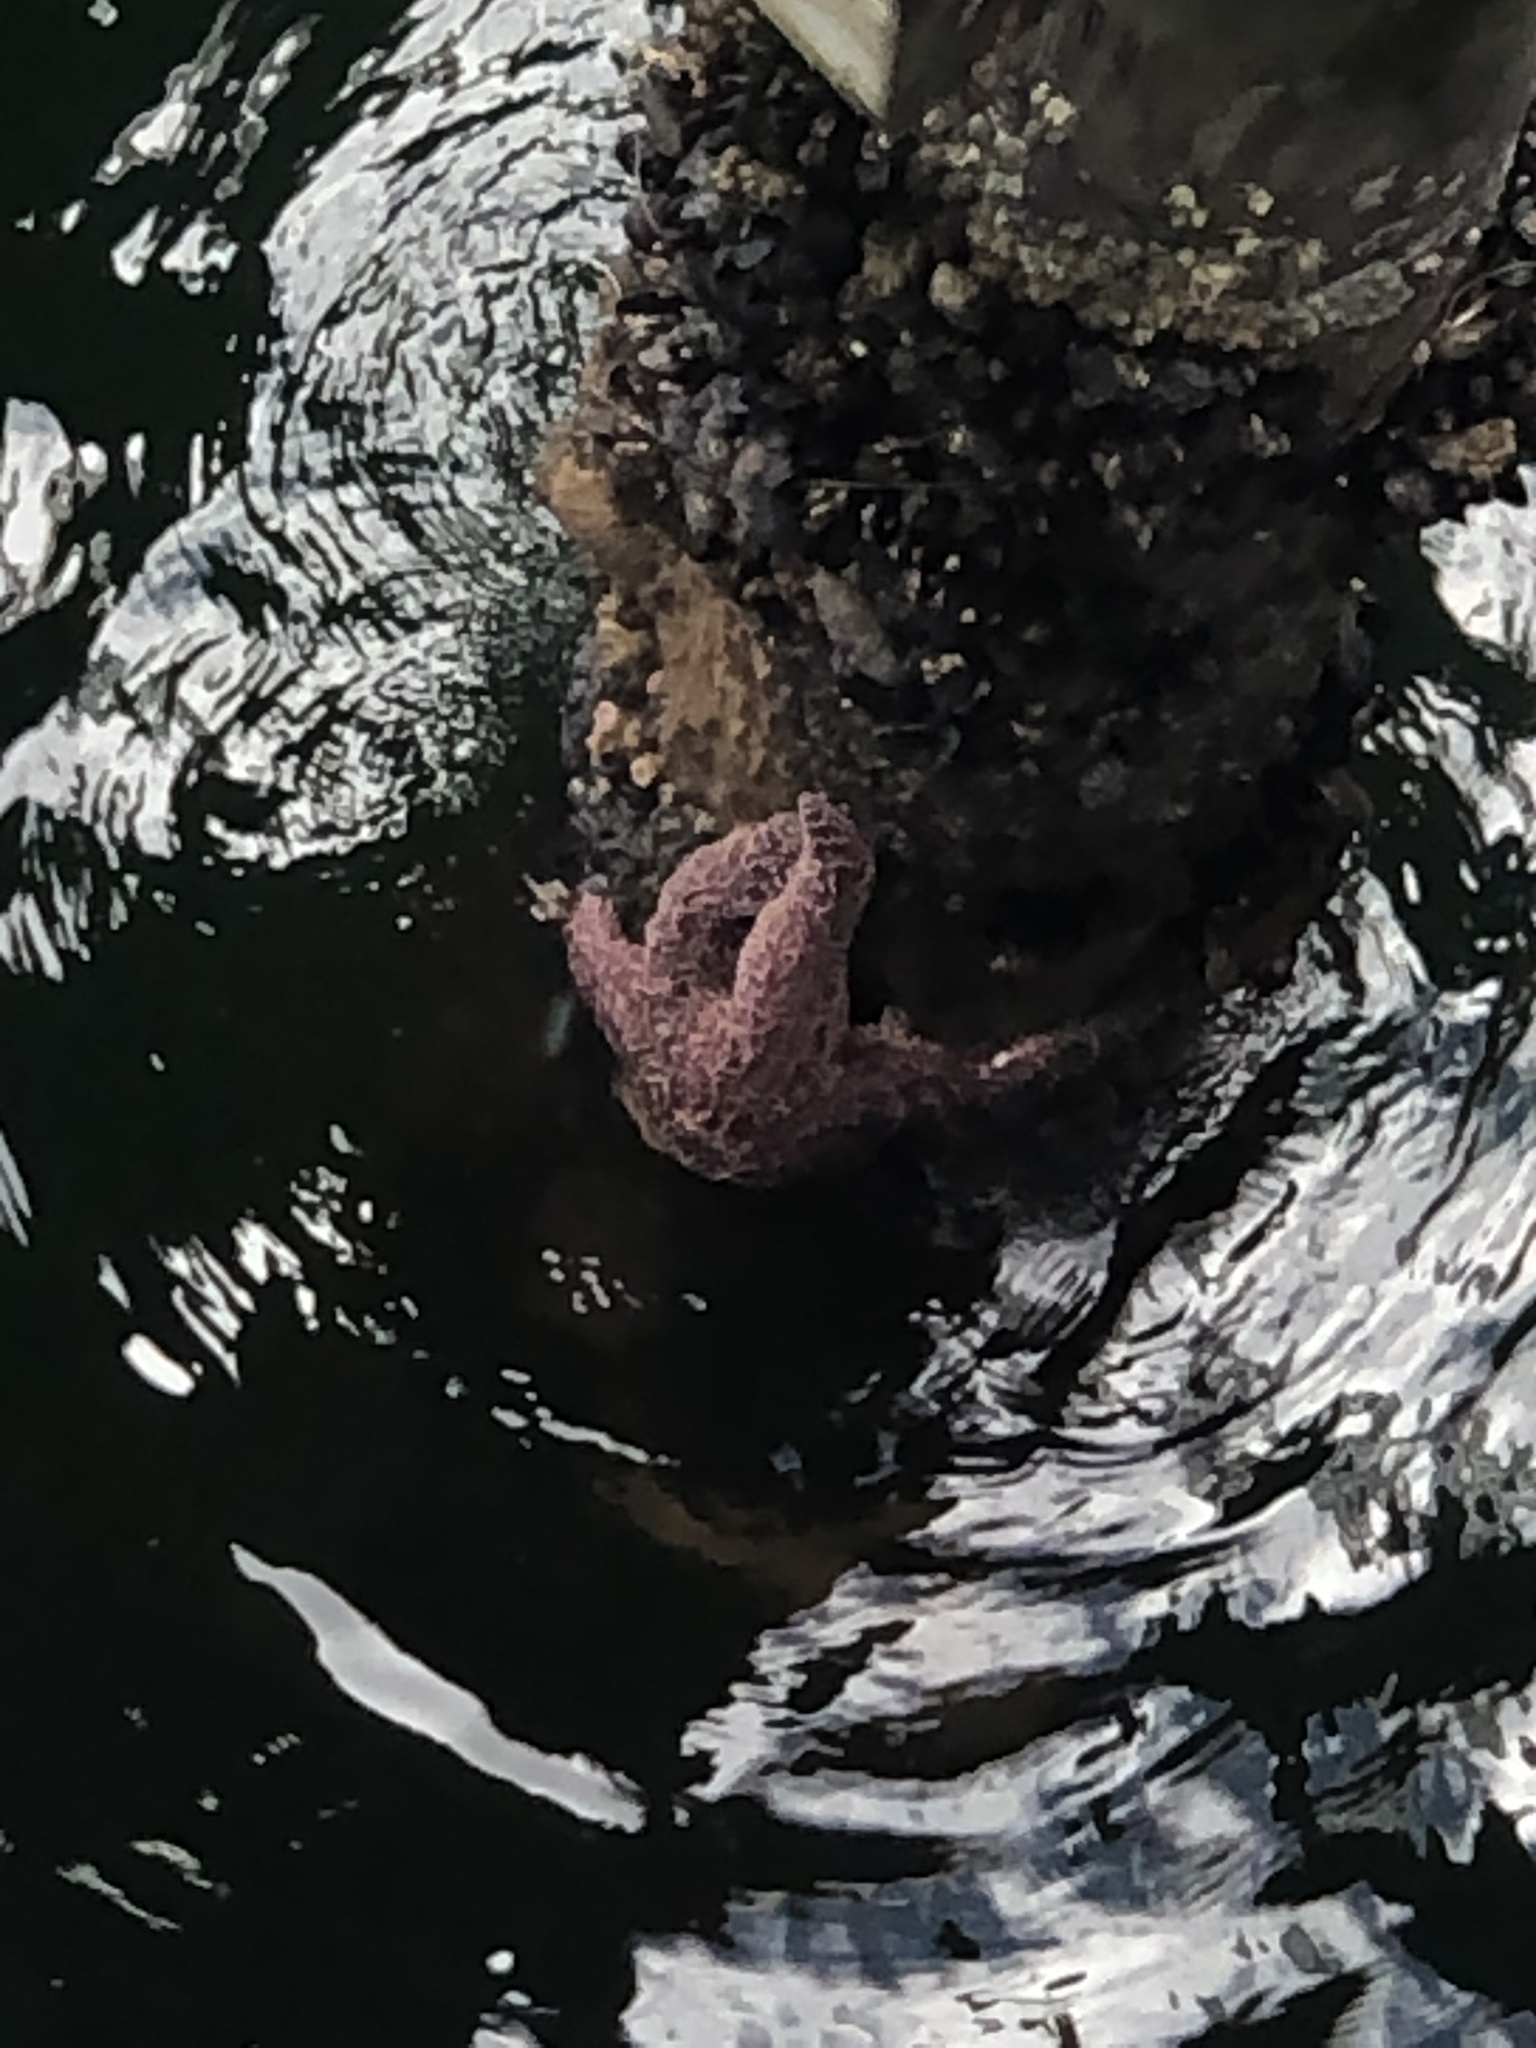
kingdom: Animalia
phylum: Echinodermata
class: Asteroidea
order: Forcipulatida
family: Asteriidae
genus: Pisaster
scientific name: Pisaster ochraceus
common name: Ochre stars
